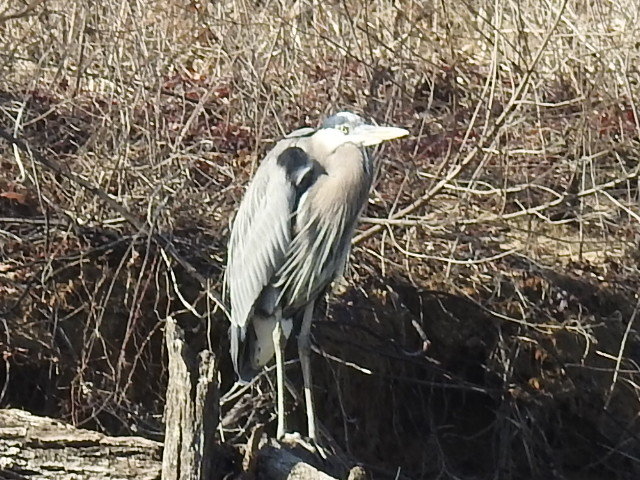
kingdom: Animalia
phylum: Chordata
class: Aves
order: Pelecaniformes
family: Ardeidae
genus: Ardea
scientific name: Ardea herodias
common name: Great blue heron
